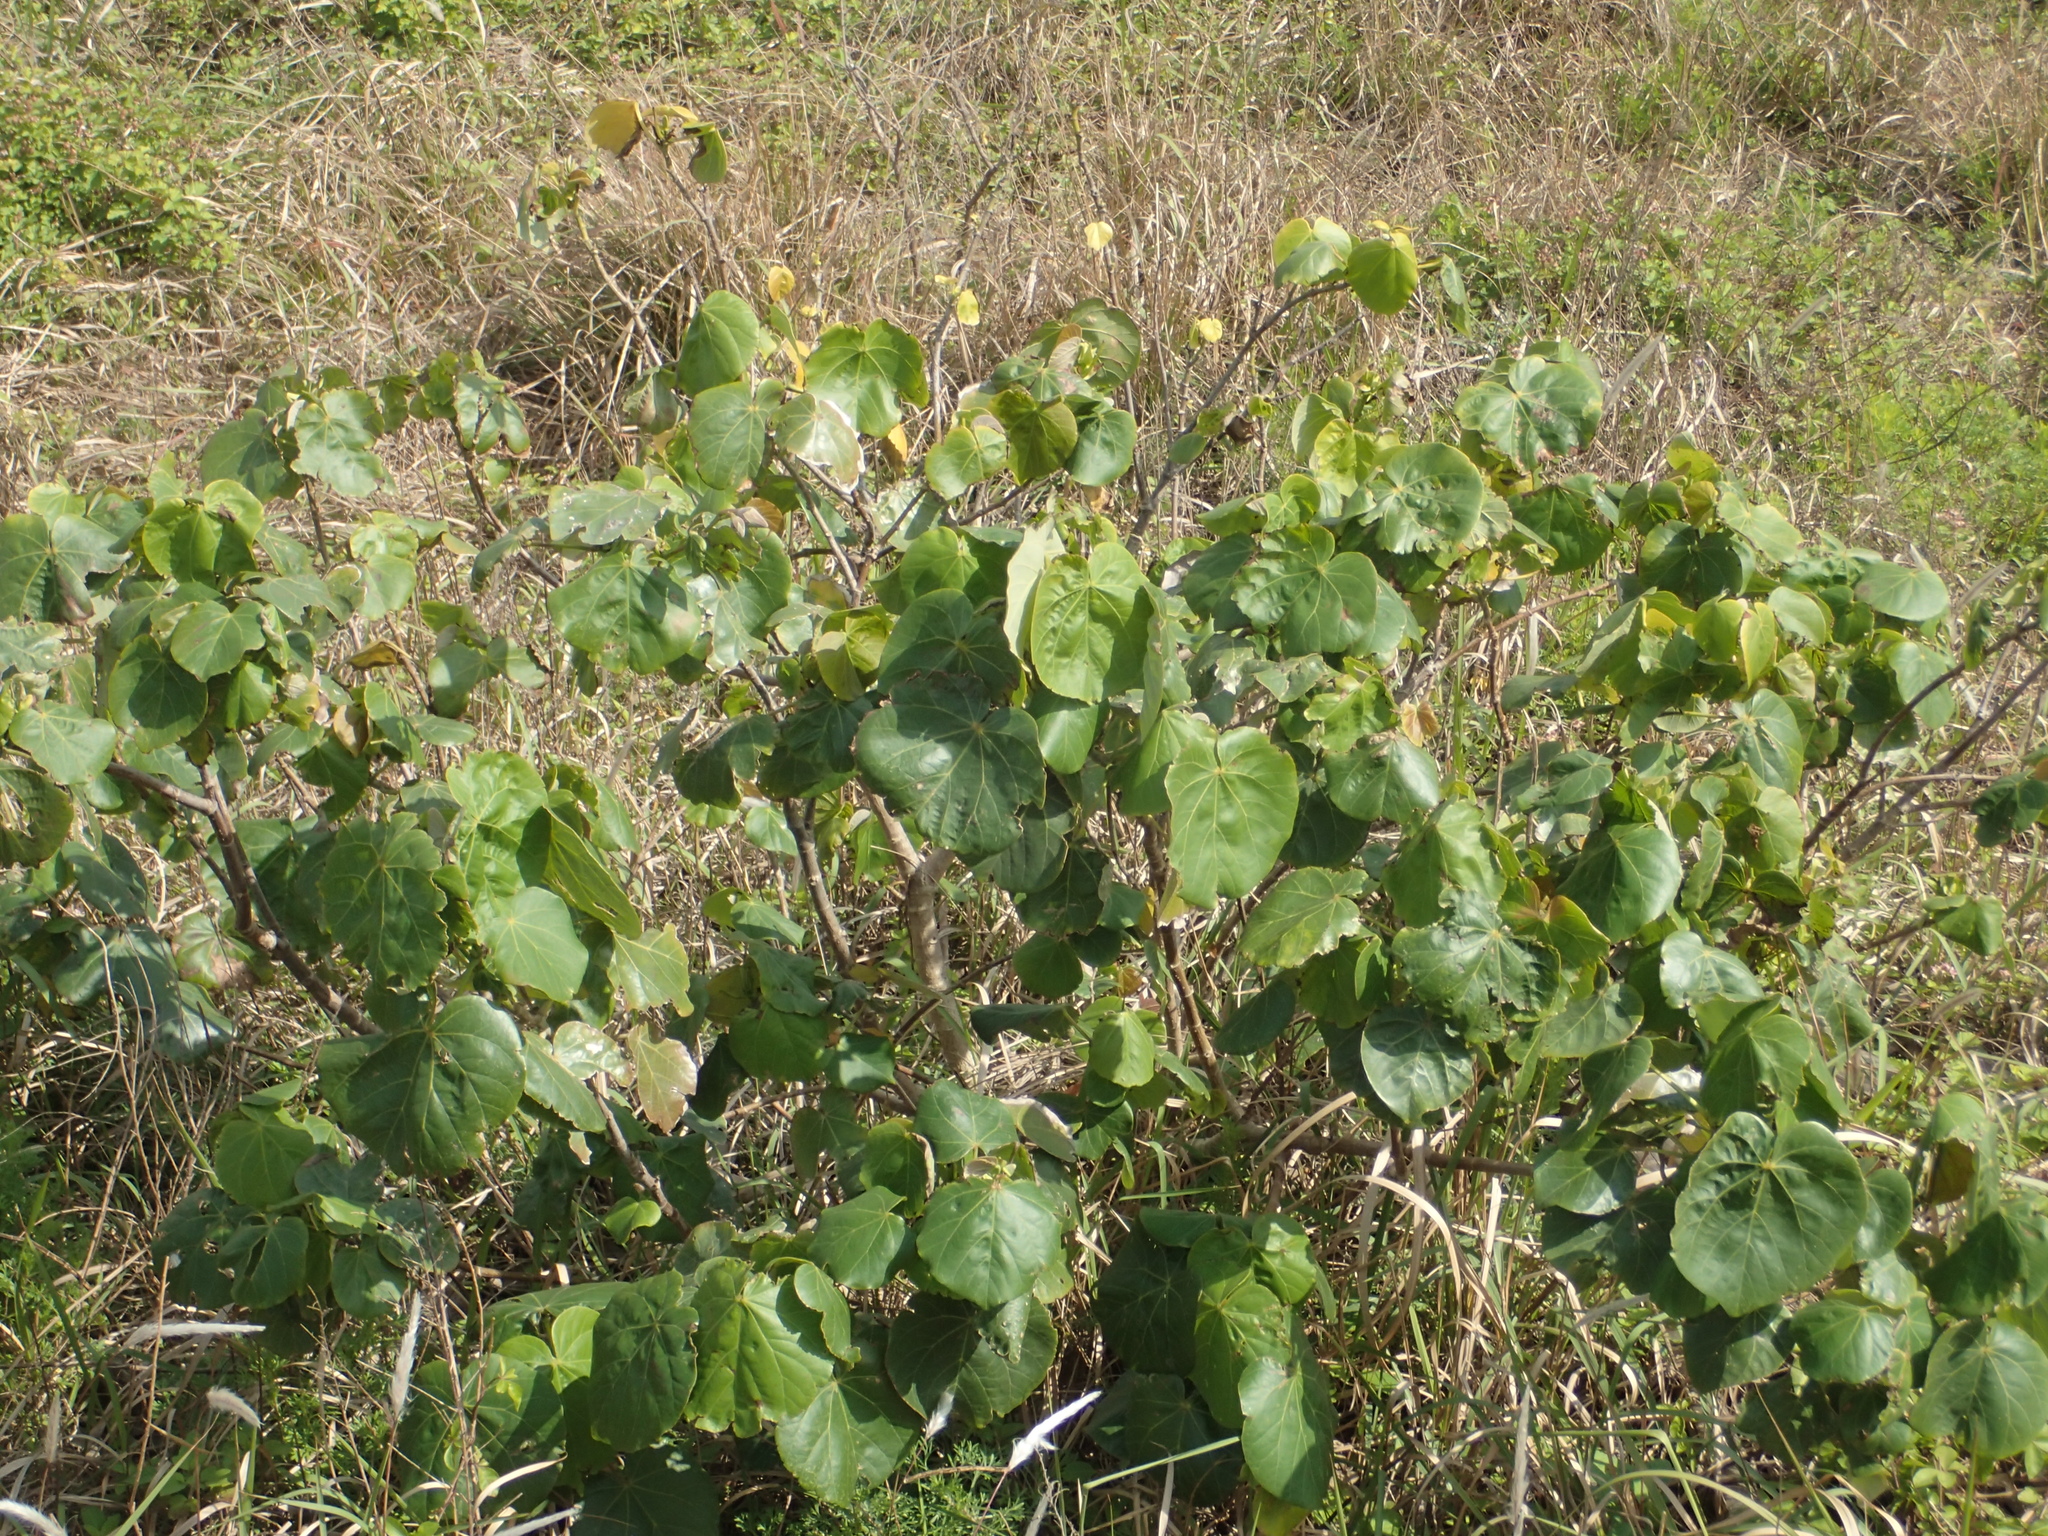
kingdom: Plantae
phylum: Tracheophyta
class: Magnoliopsida
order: Malvales
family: Malvaceae
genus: Talipariti
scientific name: Talipariti tiliaceum
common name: Sea hibiscus
